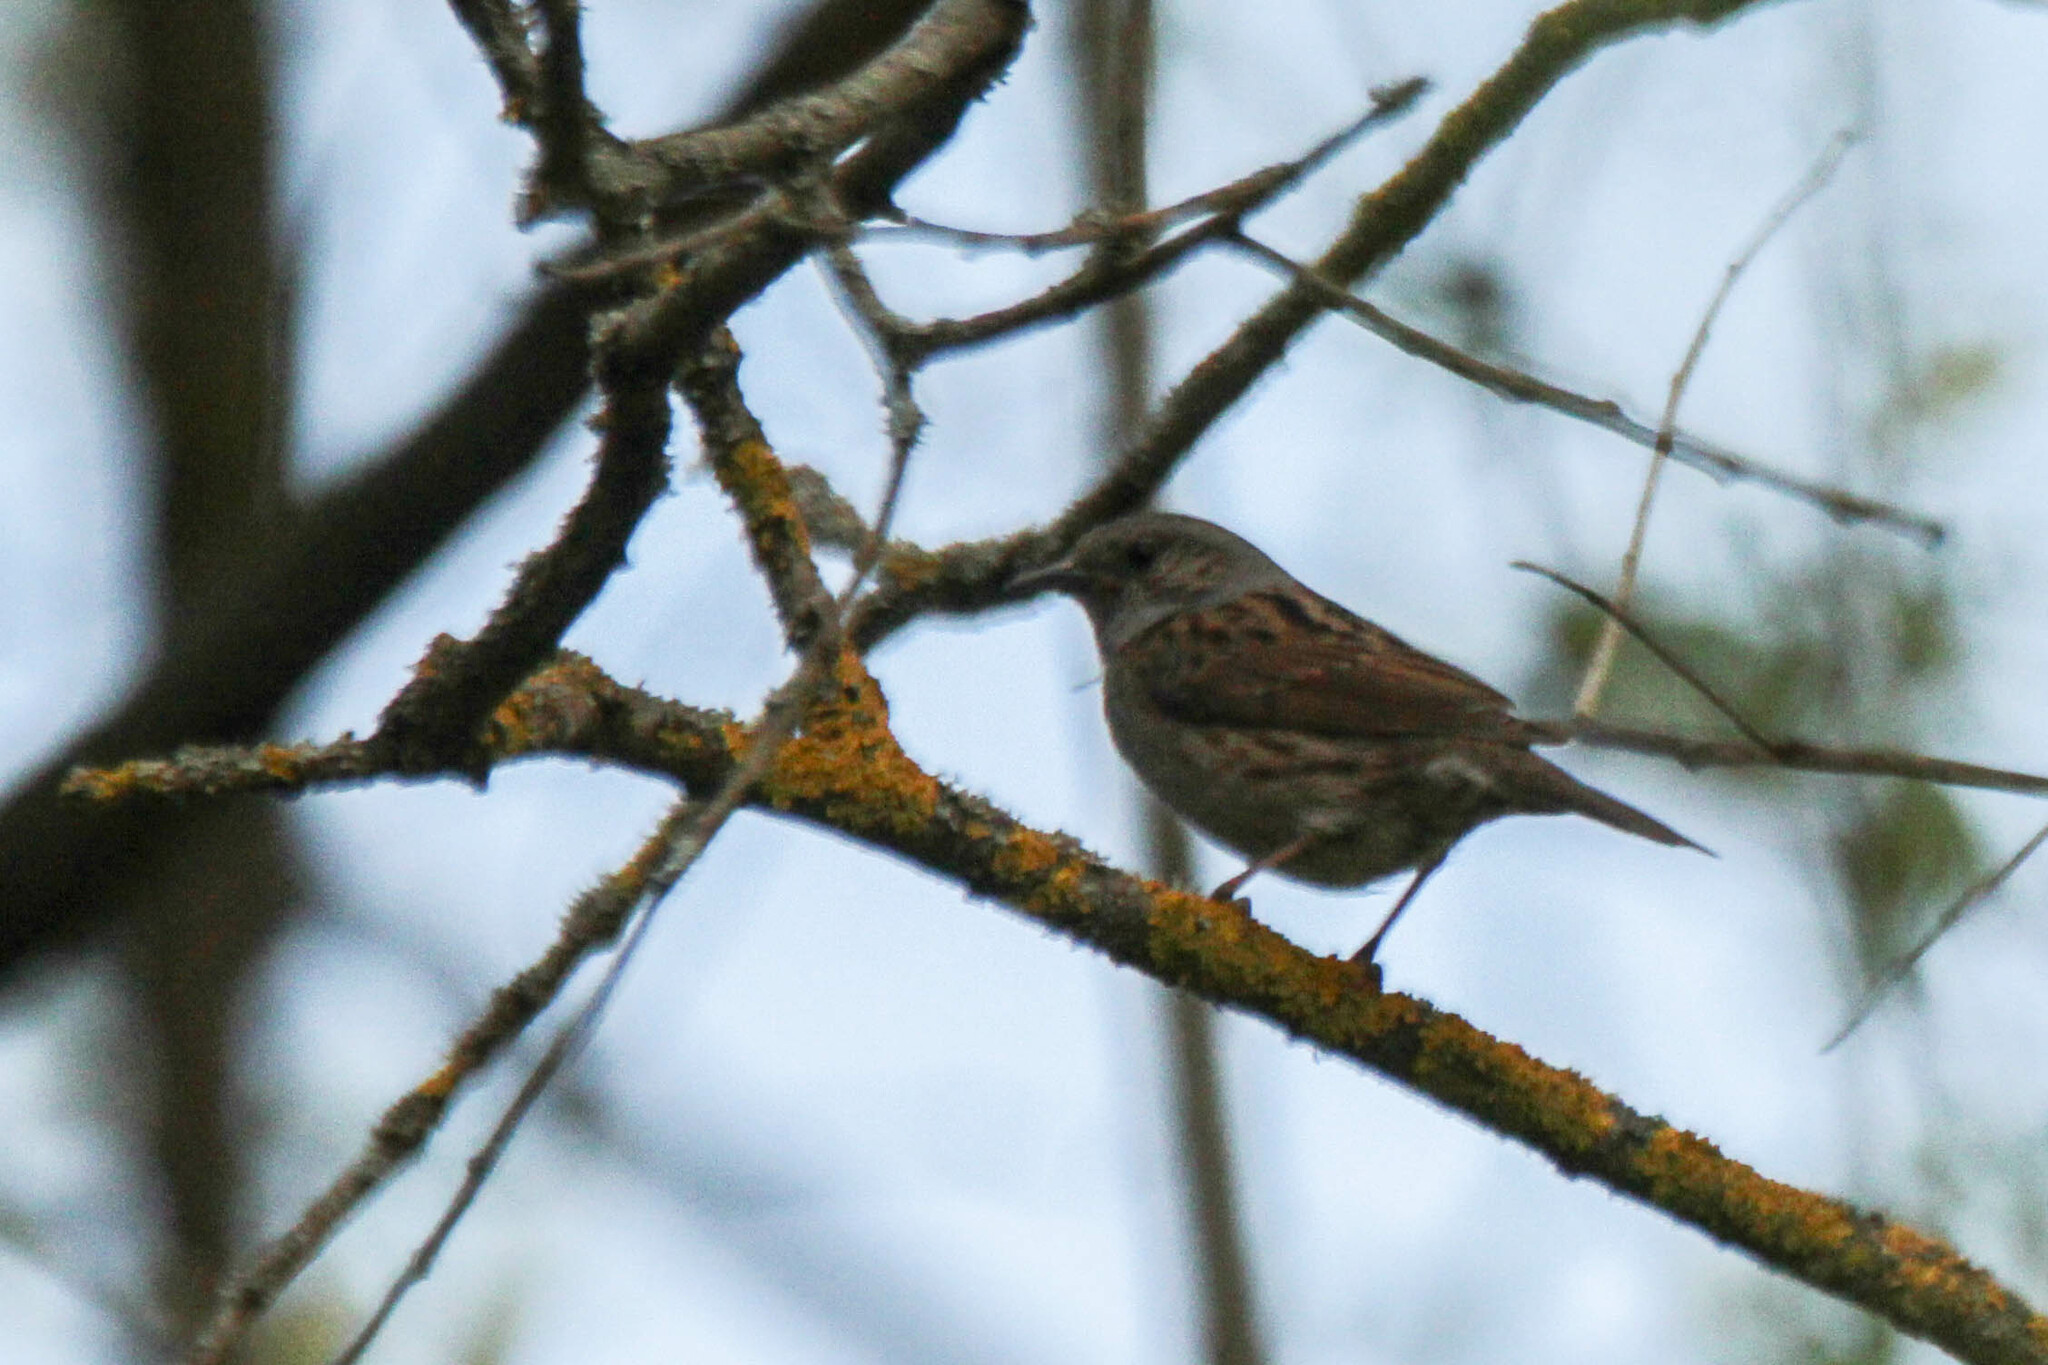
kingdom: Animalia
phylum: Chordata
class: Aves
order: Passeriformes
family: Prunellidae
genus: Prunella
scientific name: Prunella modularis
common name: Dunnock
